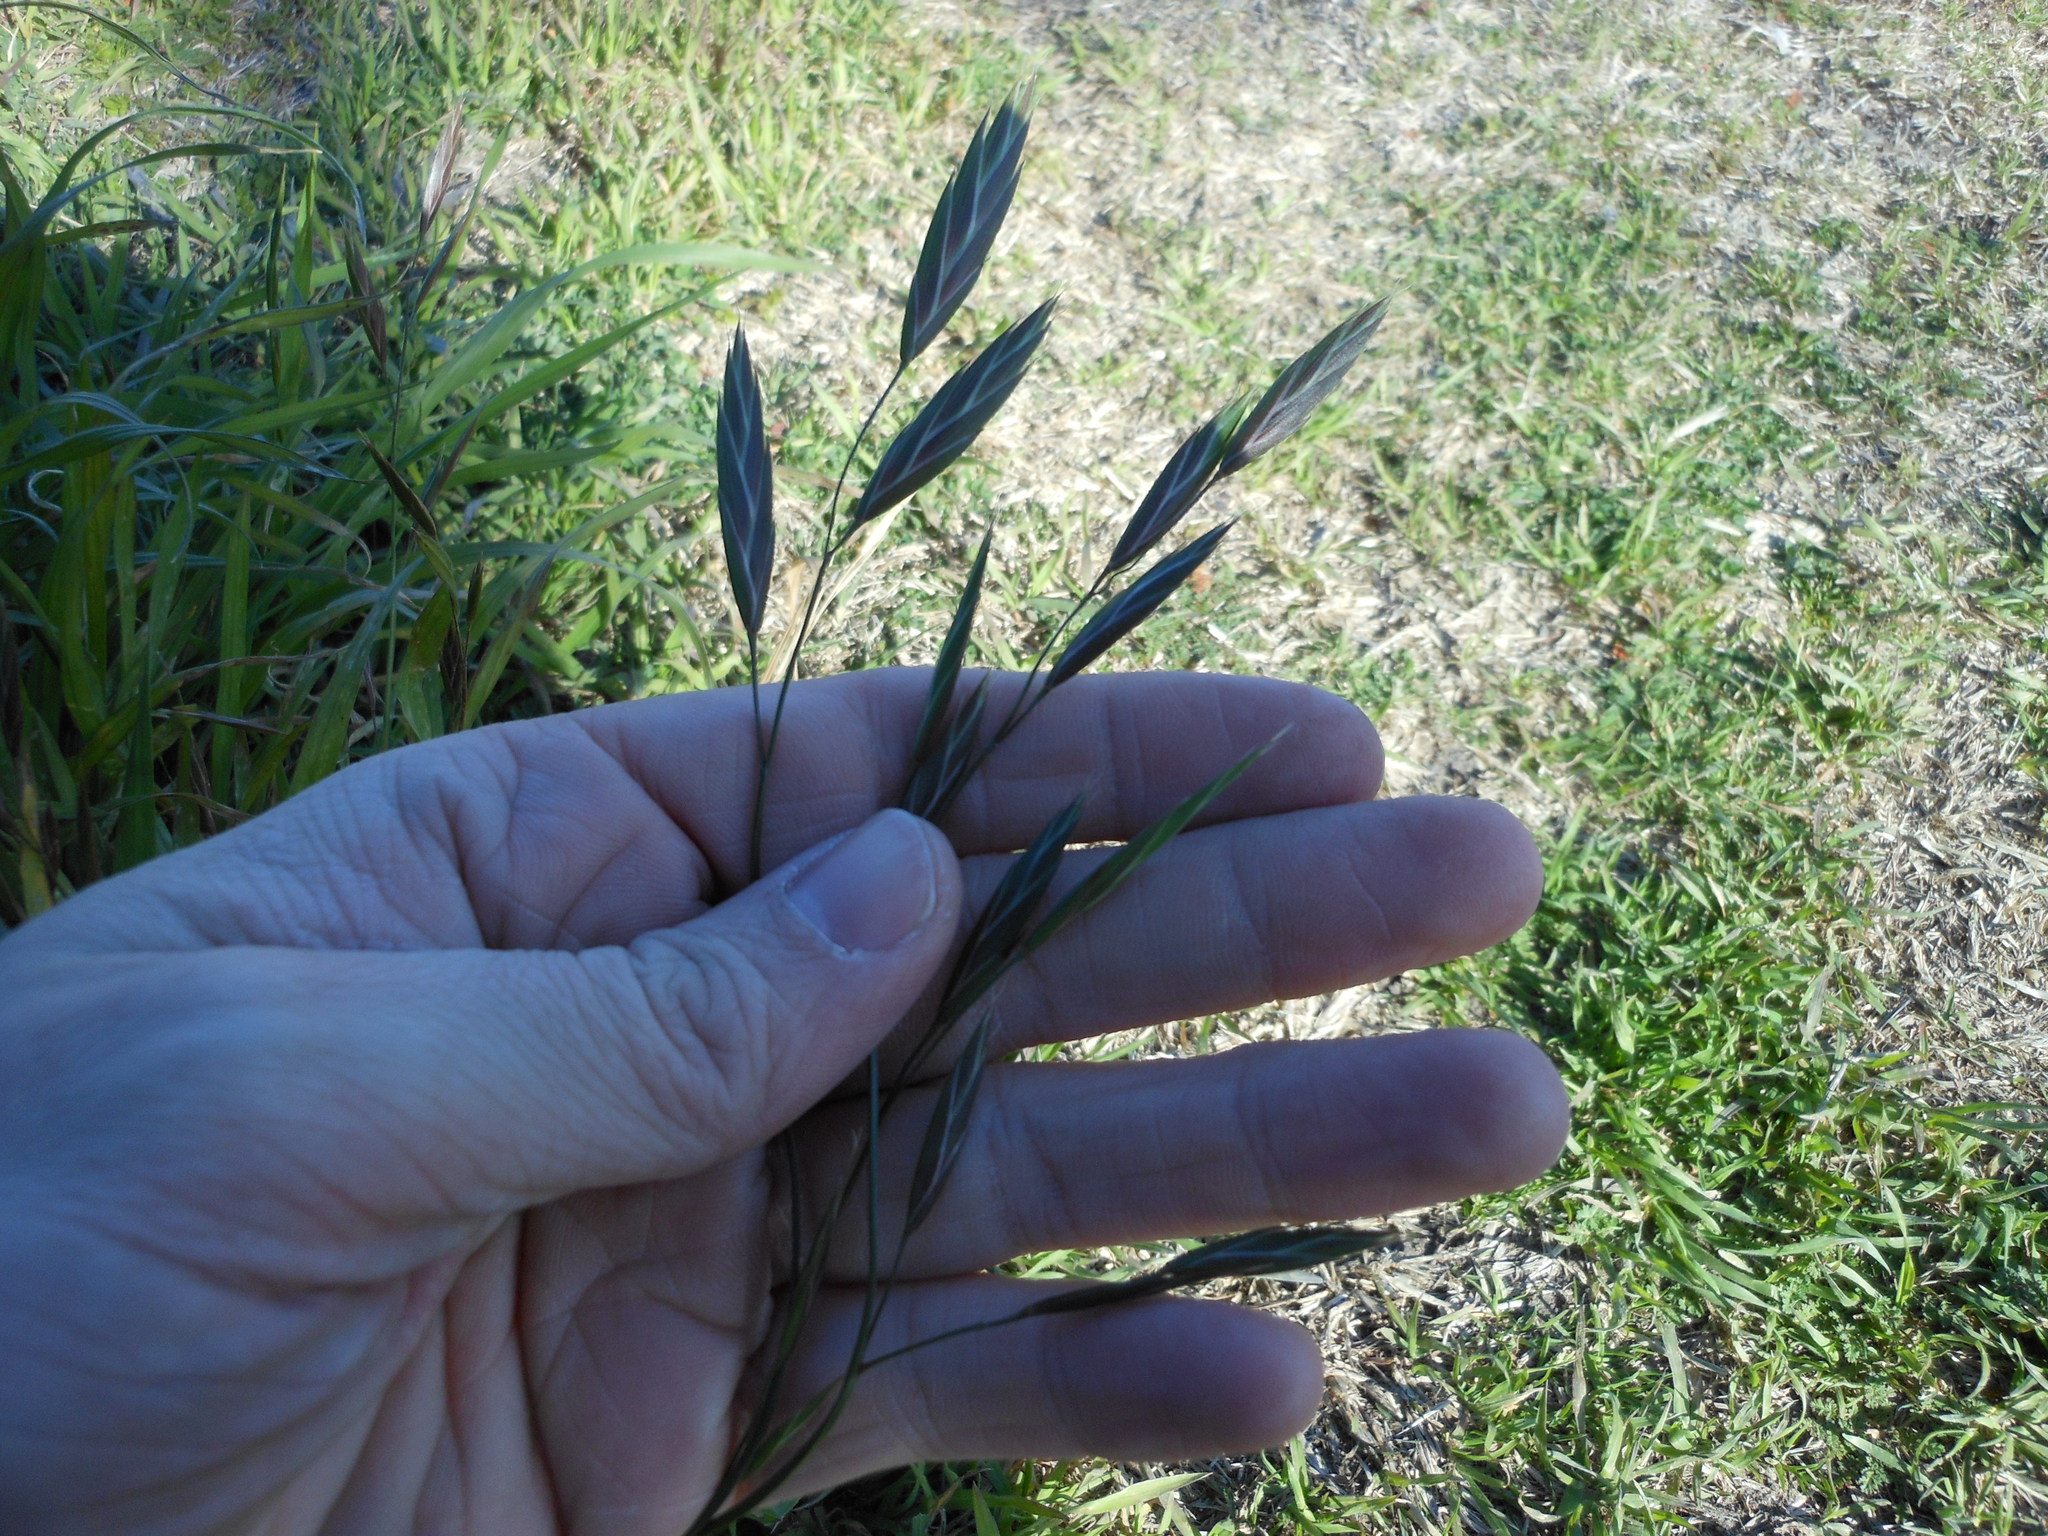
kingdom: Plantae
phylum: Tracheophyta
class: Liliopsida
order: Poales
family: Poaceae
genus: Bromus
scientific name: Bromus catharticus
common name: Rescuegrass
